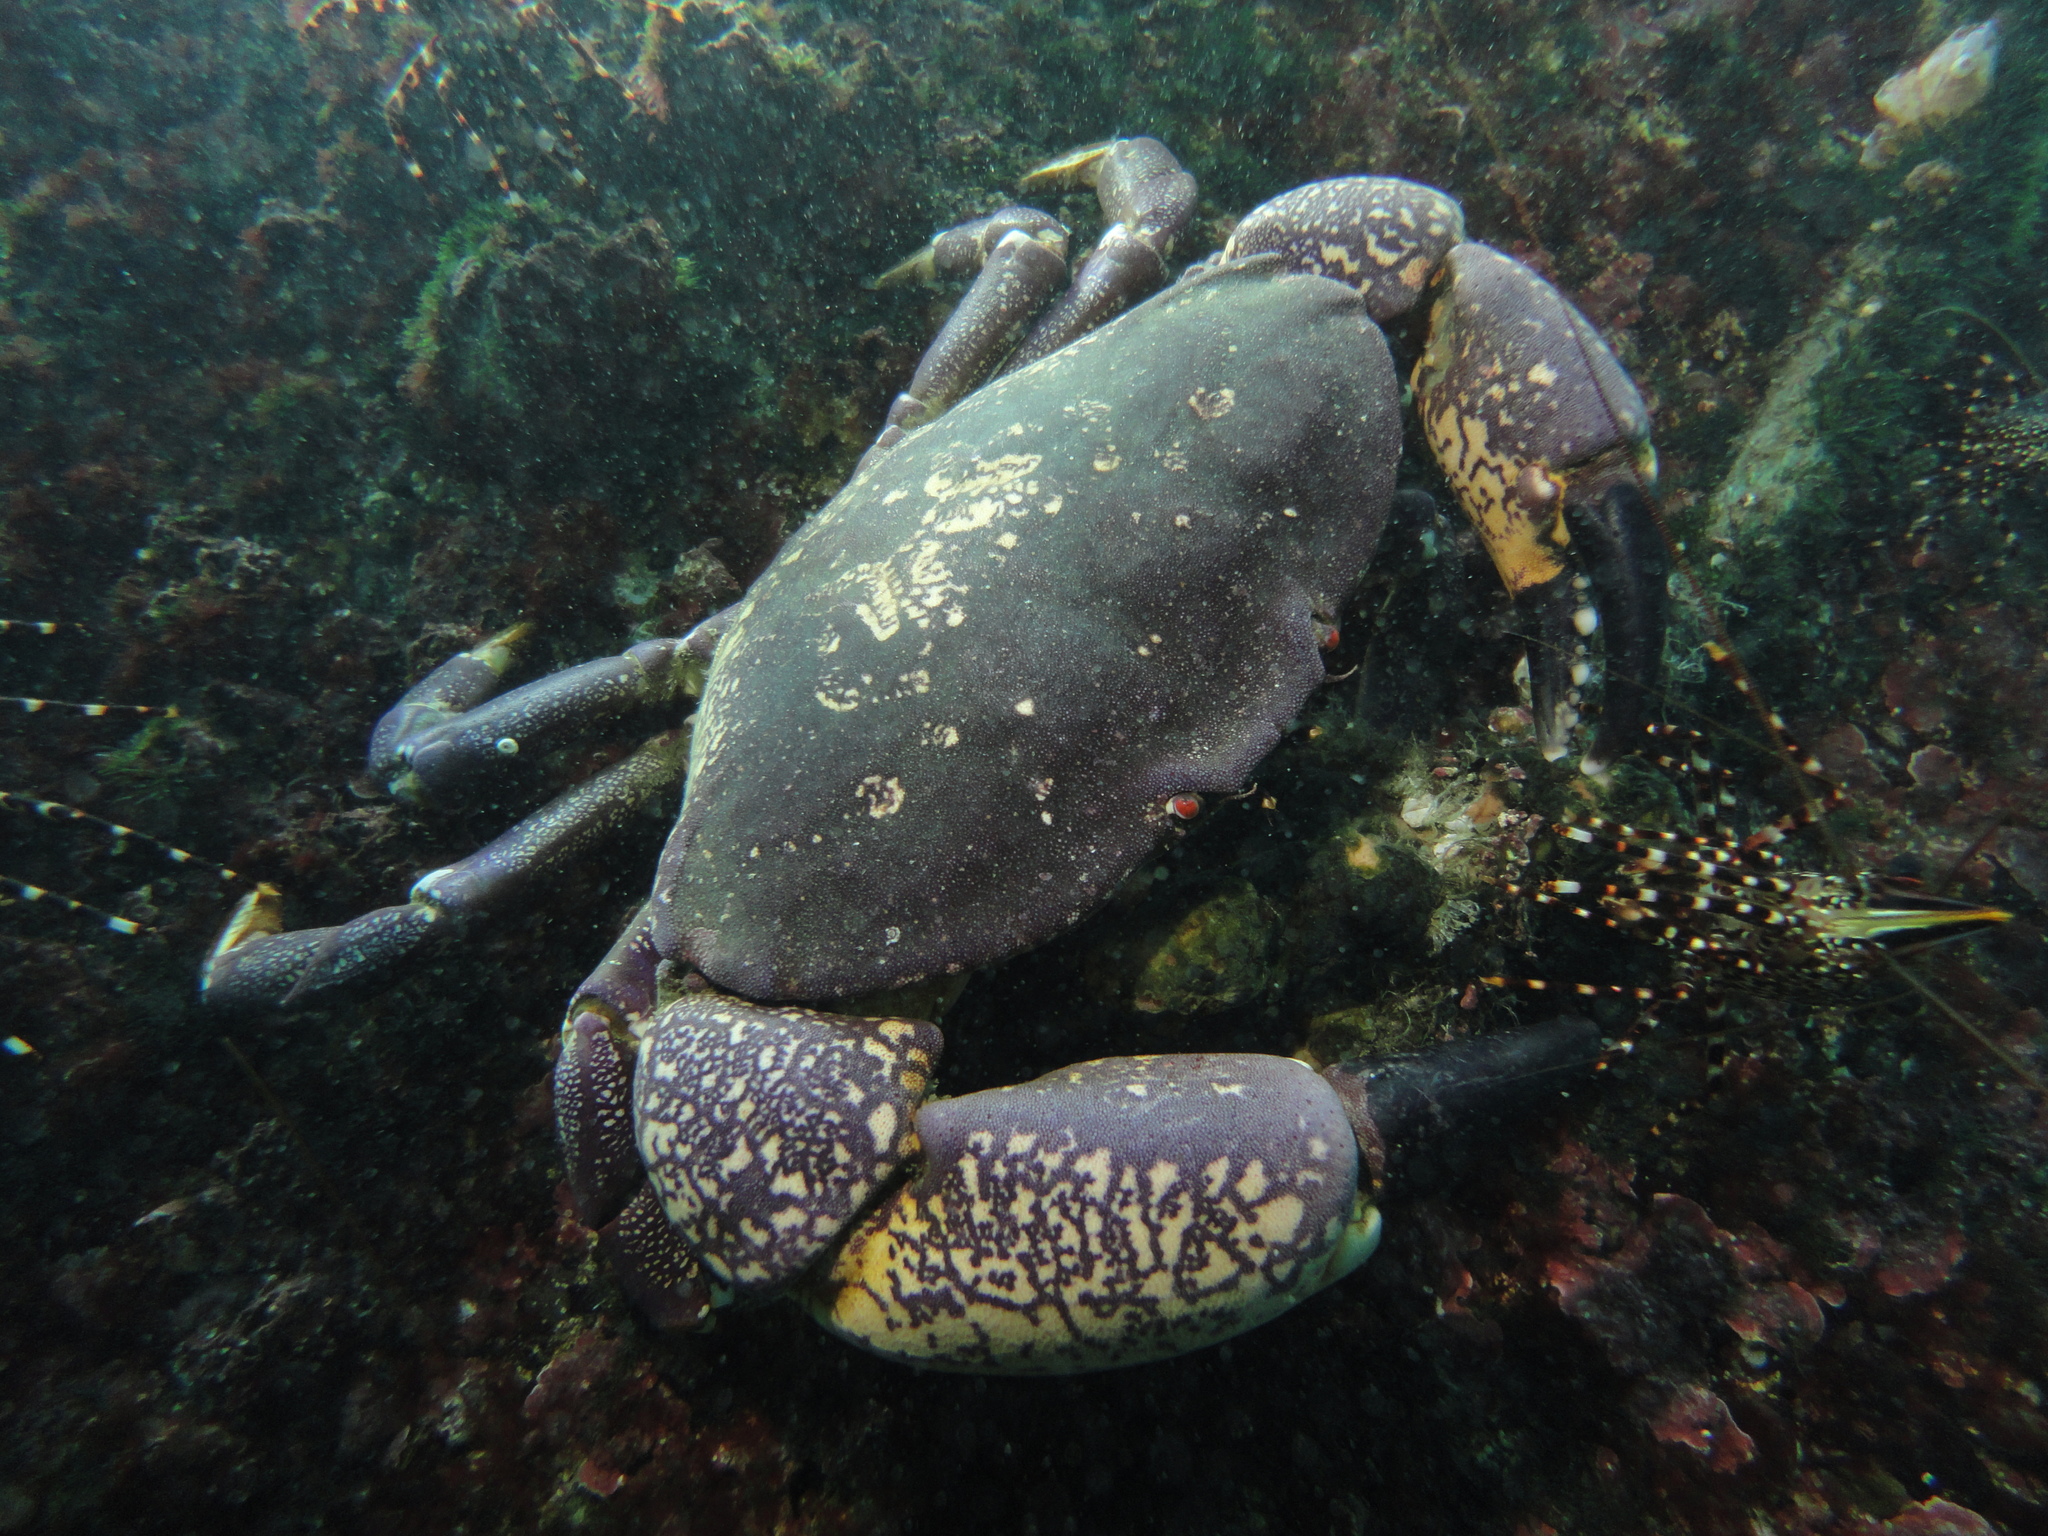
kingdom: Animalia
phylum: Arthropoda
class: Malacostraca
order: Decapoda
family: Platyxanthidae
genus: Homalaspis
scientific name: Homalaspis plana
